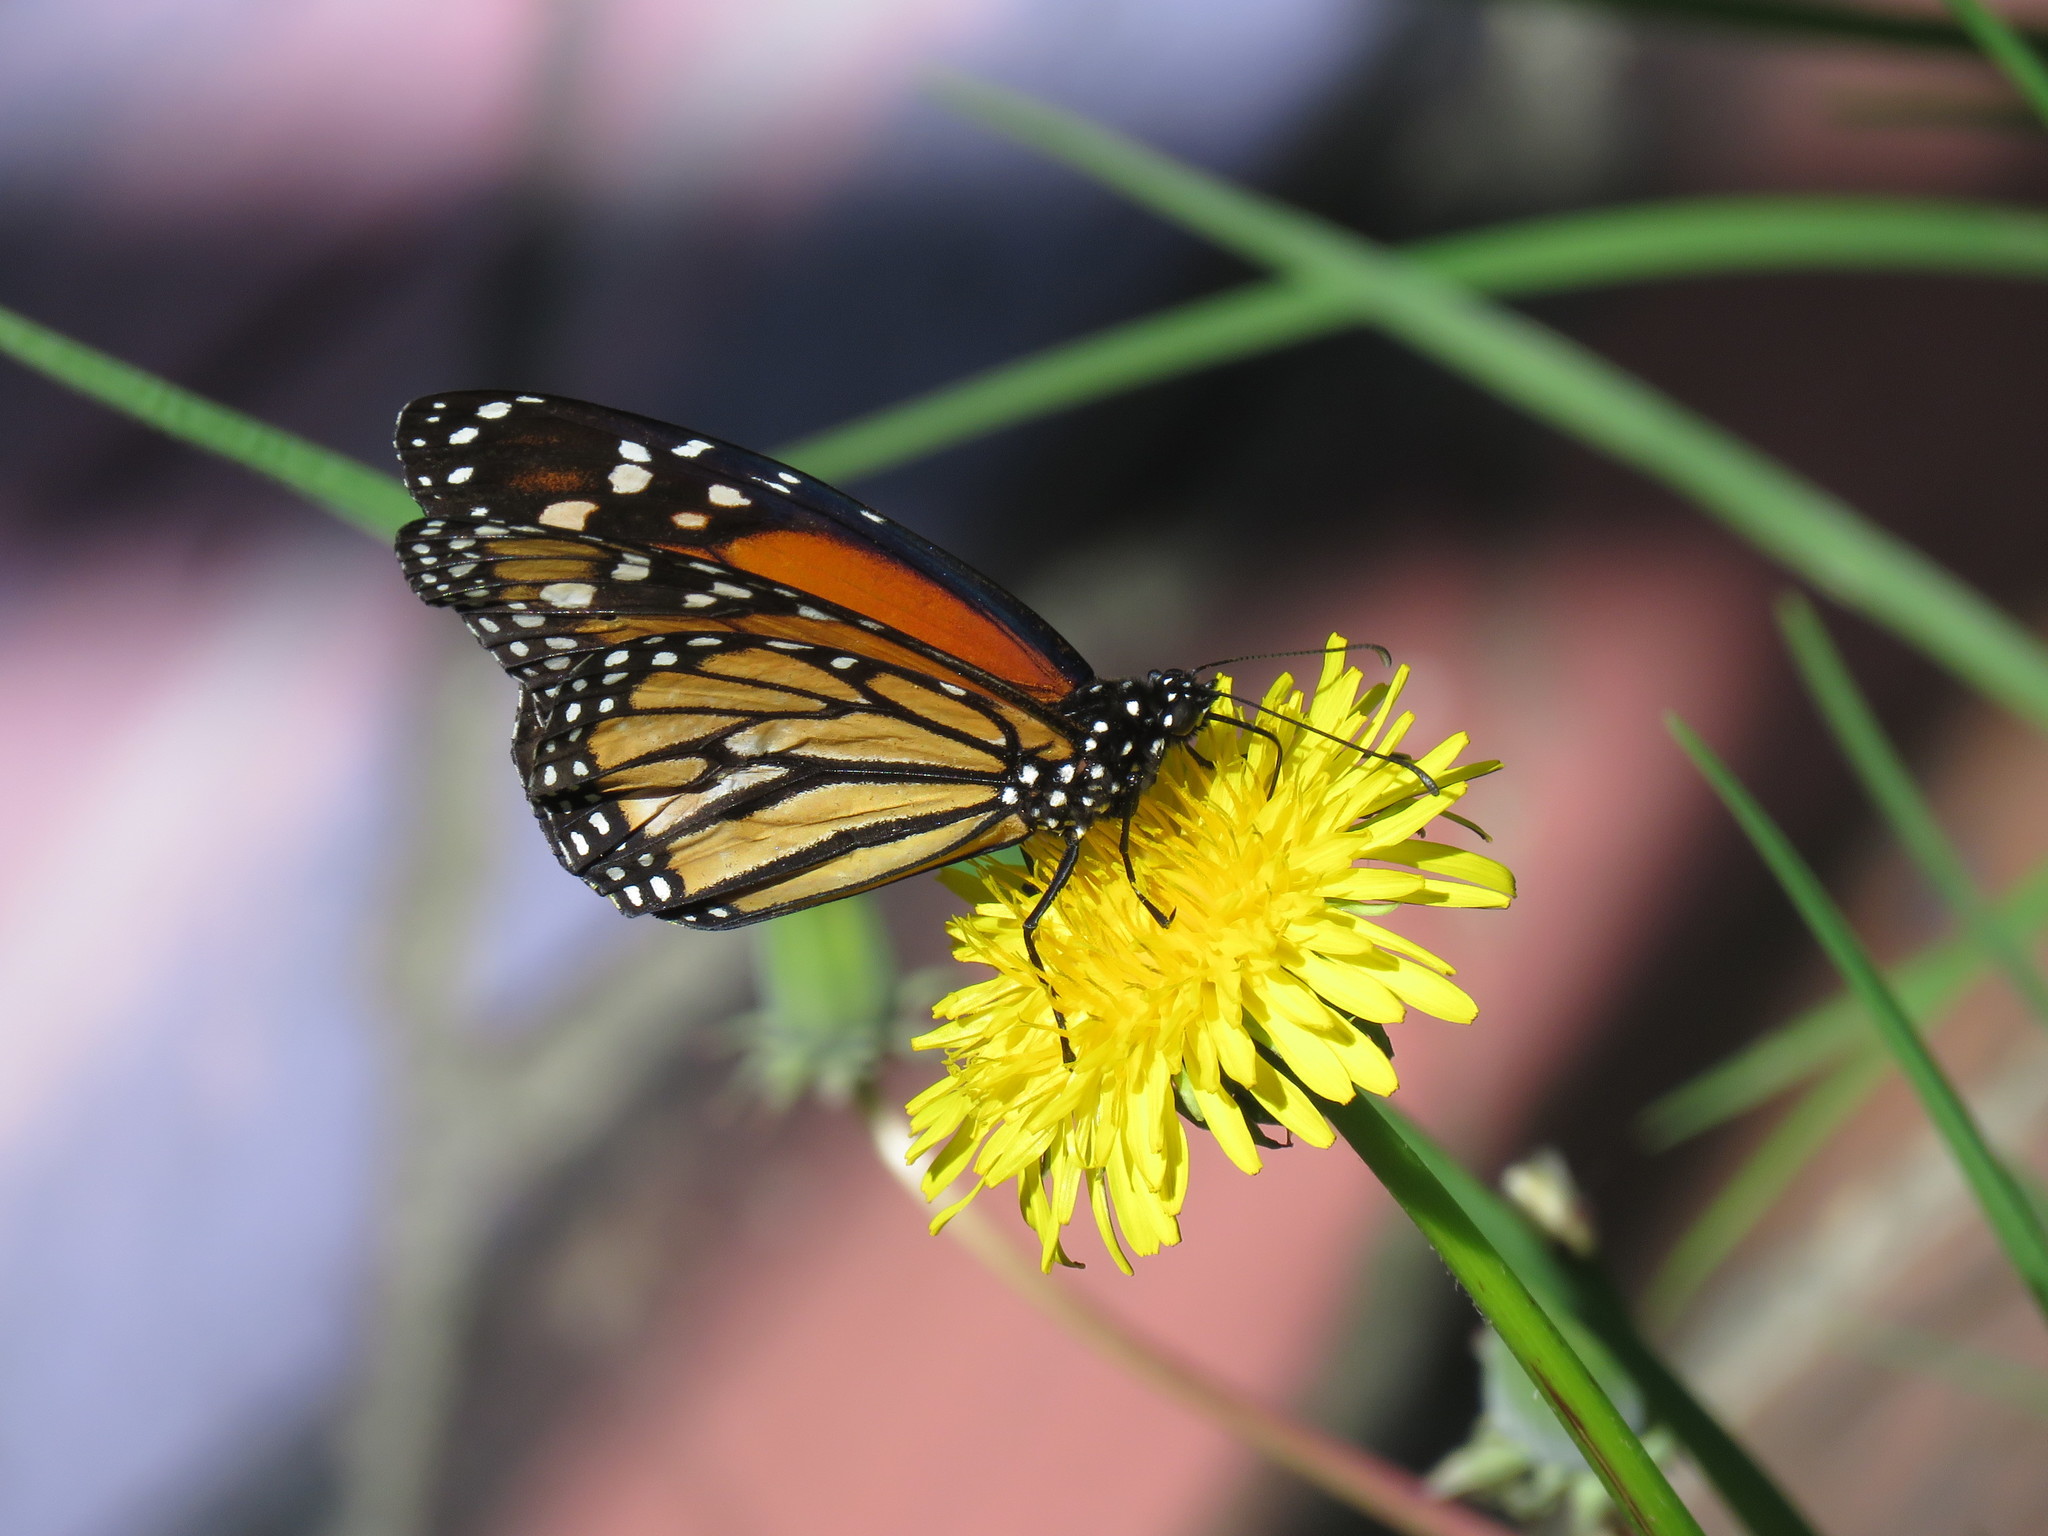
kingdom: Animalia
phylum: Arthropoda
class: Insecta
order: Lepidoptera
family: Nymphalidae
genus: Danaus
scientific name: Danaus plexippus
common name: Monarch
